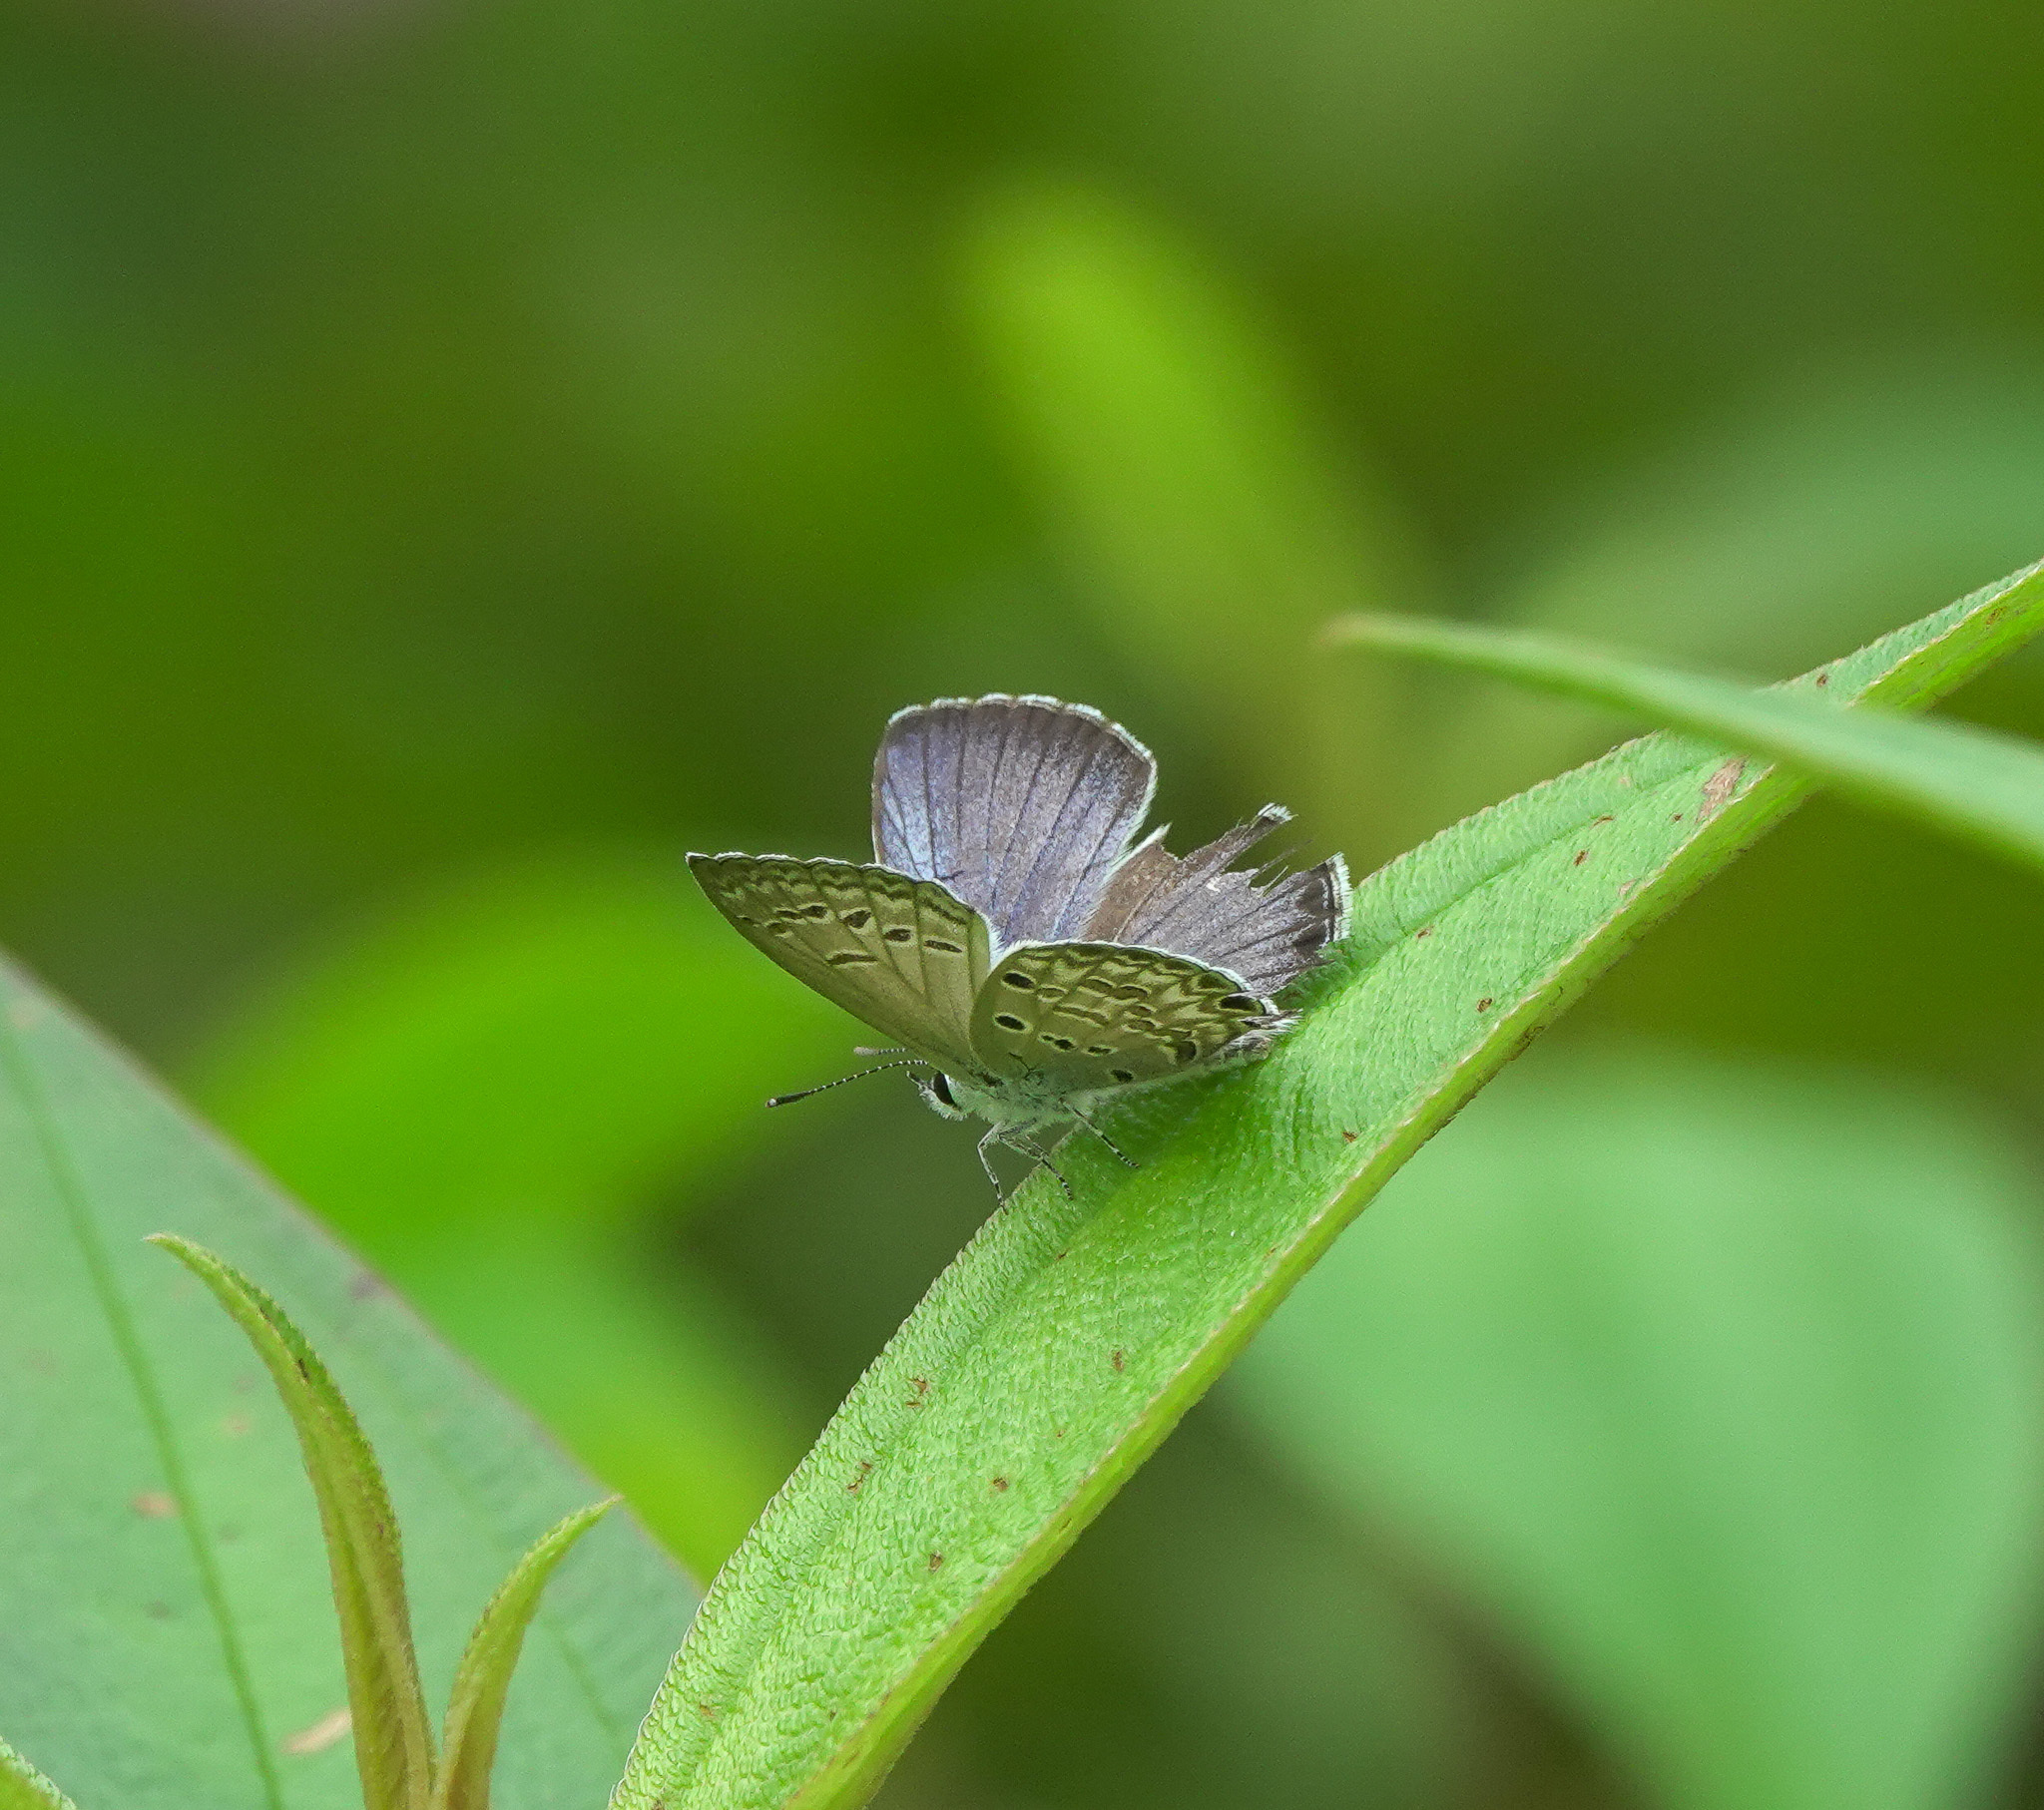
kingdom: Animalia
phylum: Arthropoda
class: Insecta
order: Lepidoptera
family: Lycaenidae
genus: Chilades
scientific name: Chilades laius
